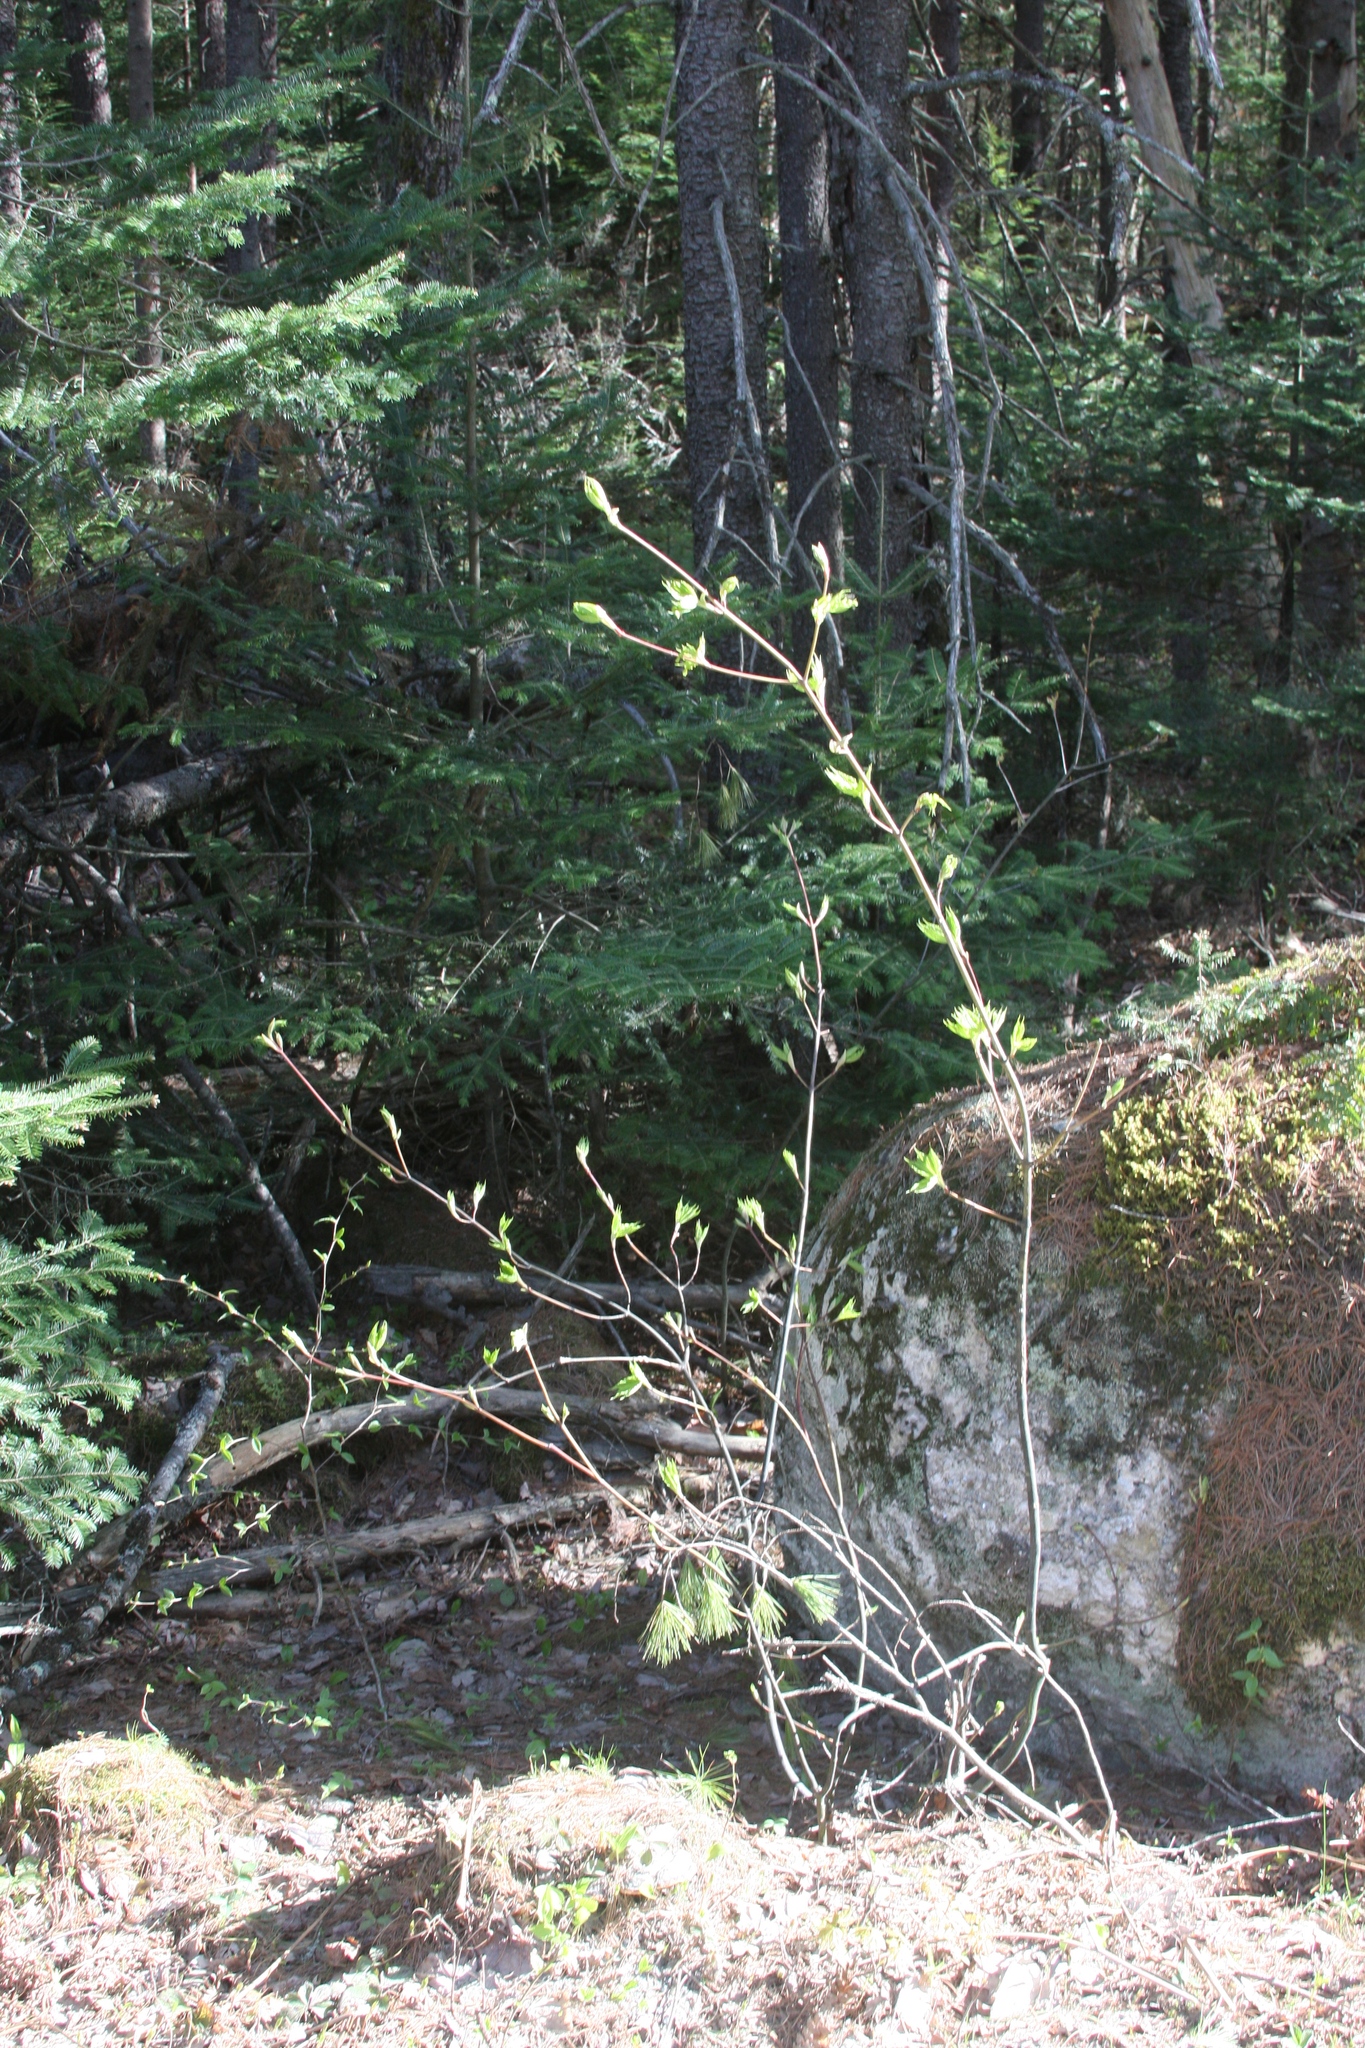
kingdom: Plantae
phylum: Tracheophyta
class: Magnoliopsida
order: Sapindales
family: Sapindaceae
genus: Acer
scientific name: Acer pensylvanicum
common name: Moosewood
